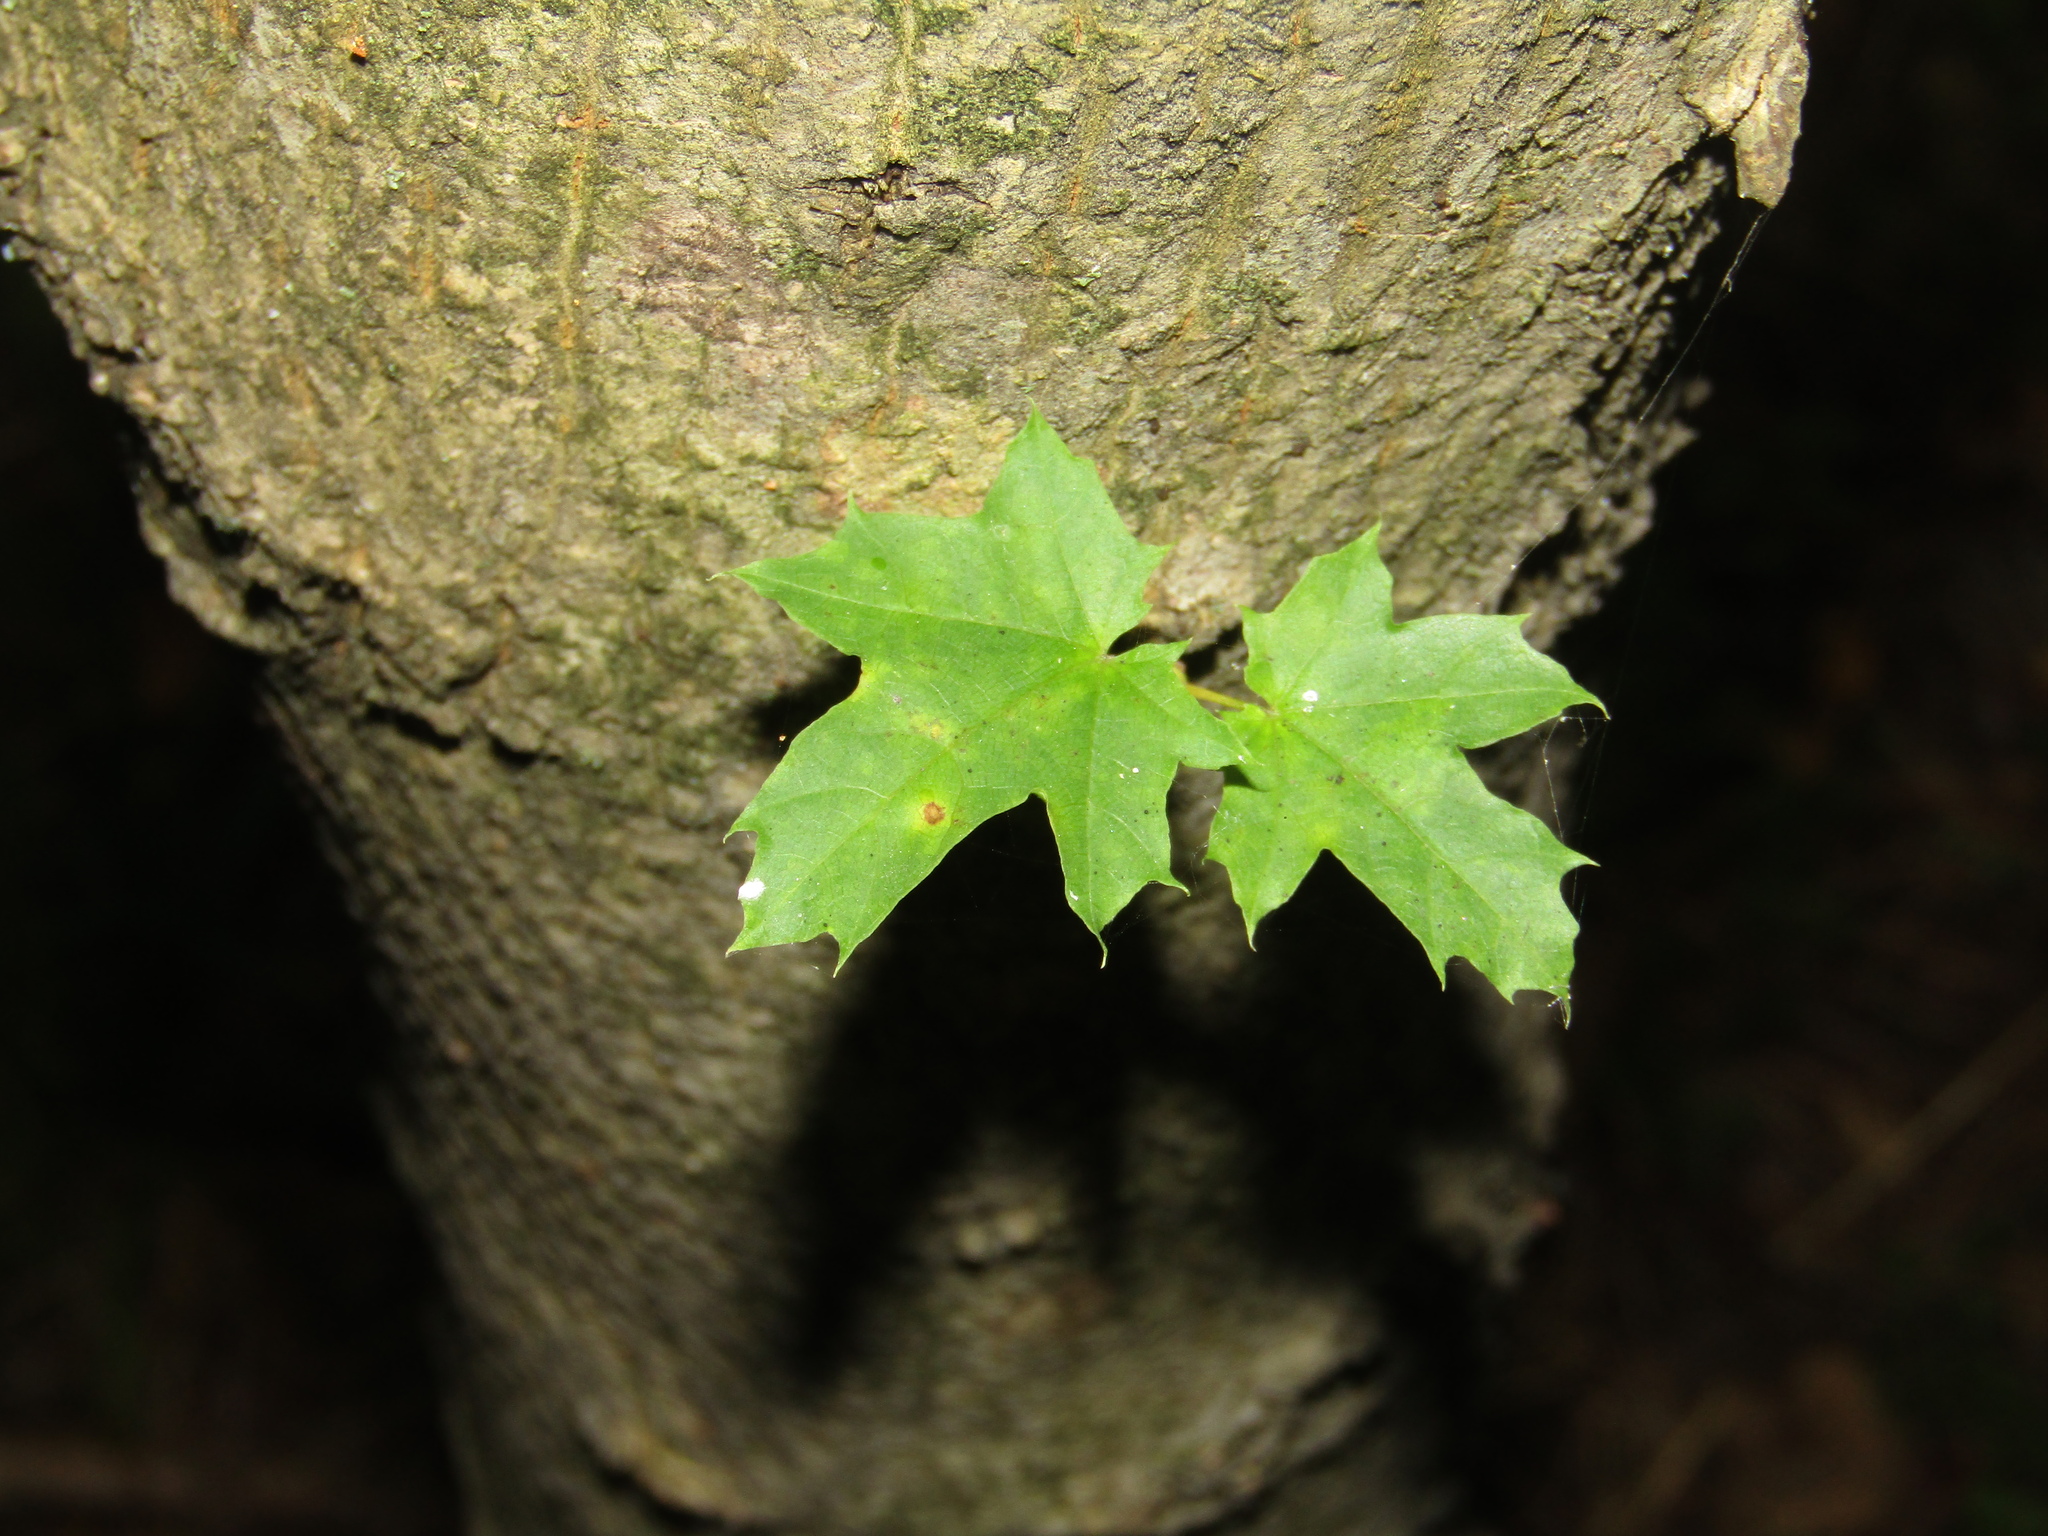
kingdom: Plantae
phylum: Tracheophyta
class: Magnoliopsida
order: Sapindales
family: Sapindaceae
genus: Acer
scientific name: Acer platanoides
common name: Norway maple
